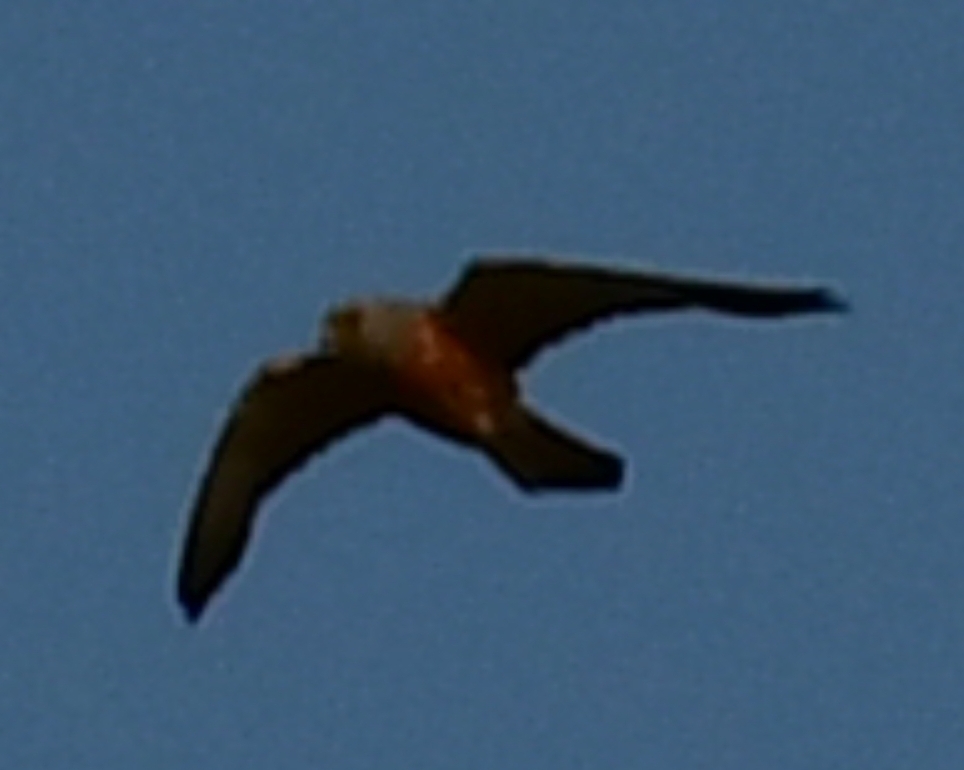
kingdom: Animalia
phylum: Chordata
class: Aves
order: Falconiformes
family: Falconidae
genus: Falco
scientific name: Falco naumanni
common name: Lesser kestrel
